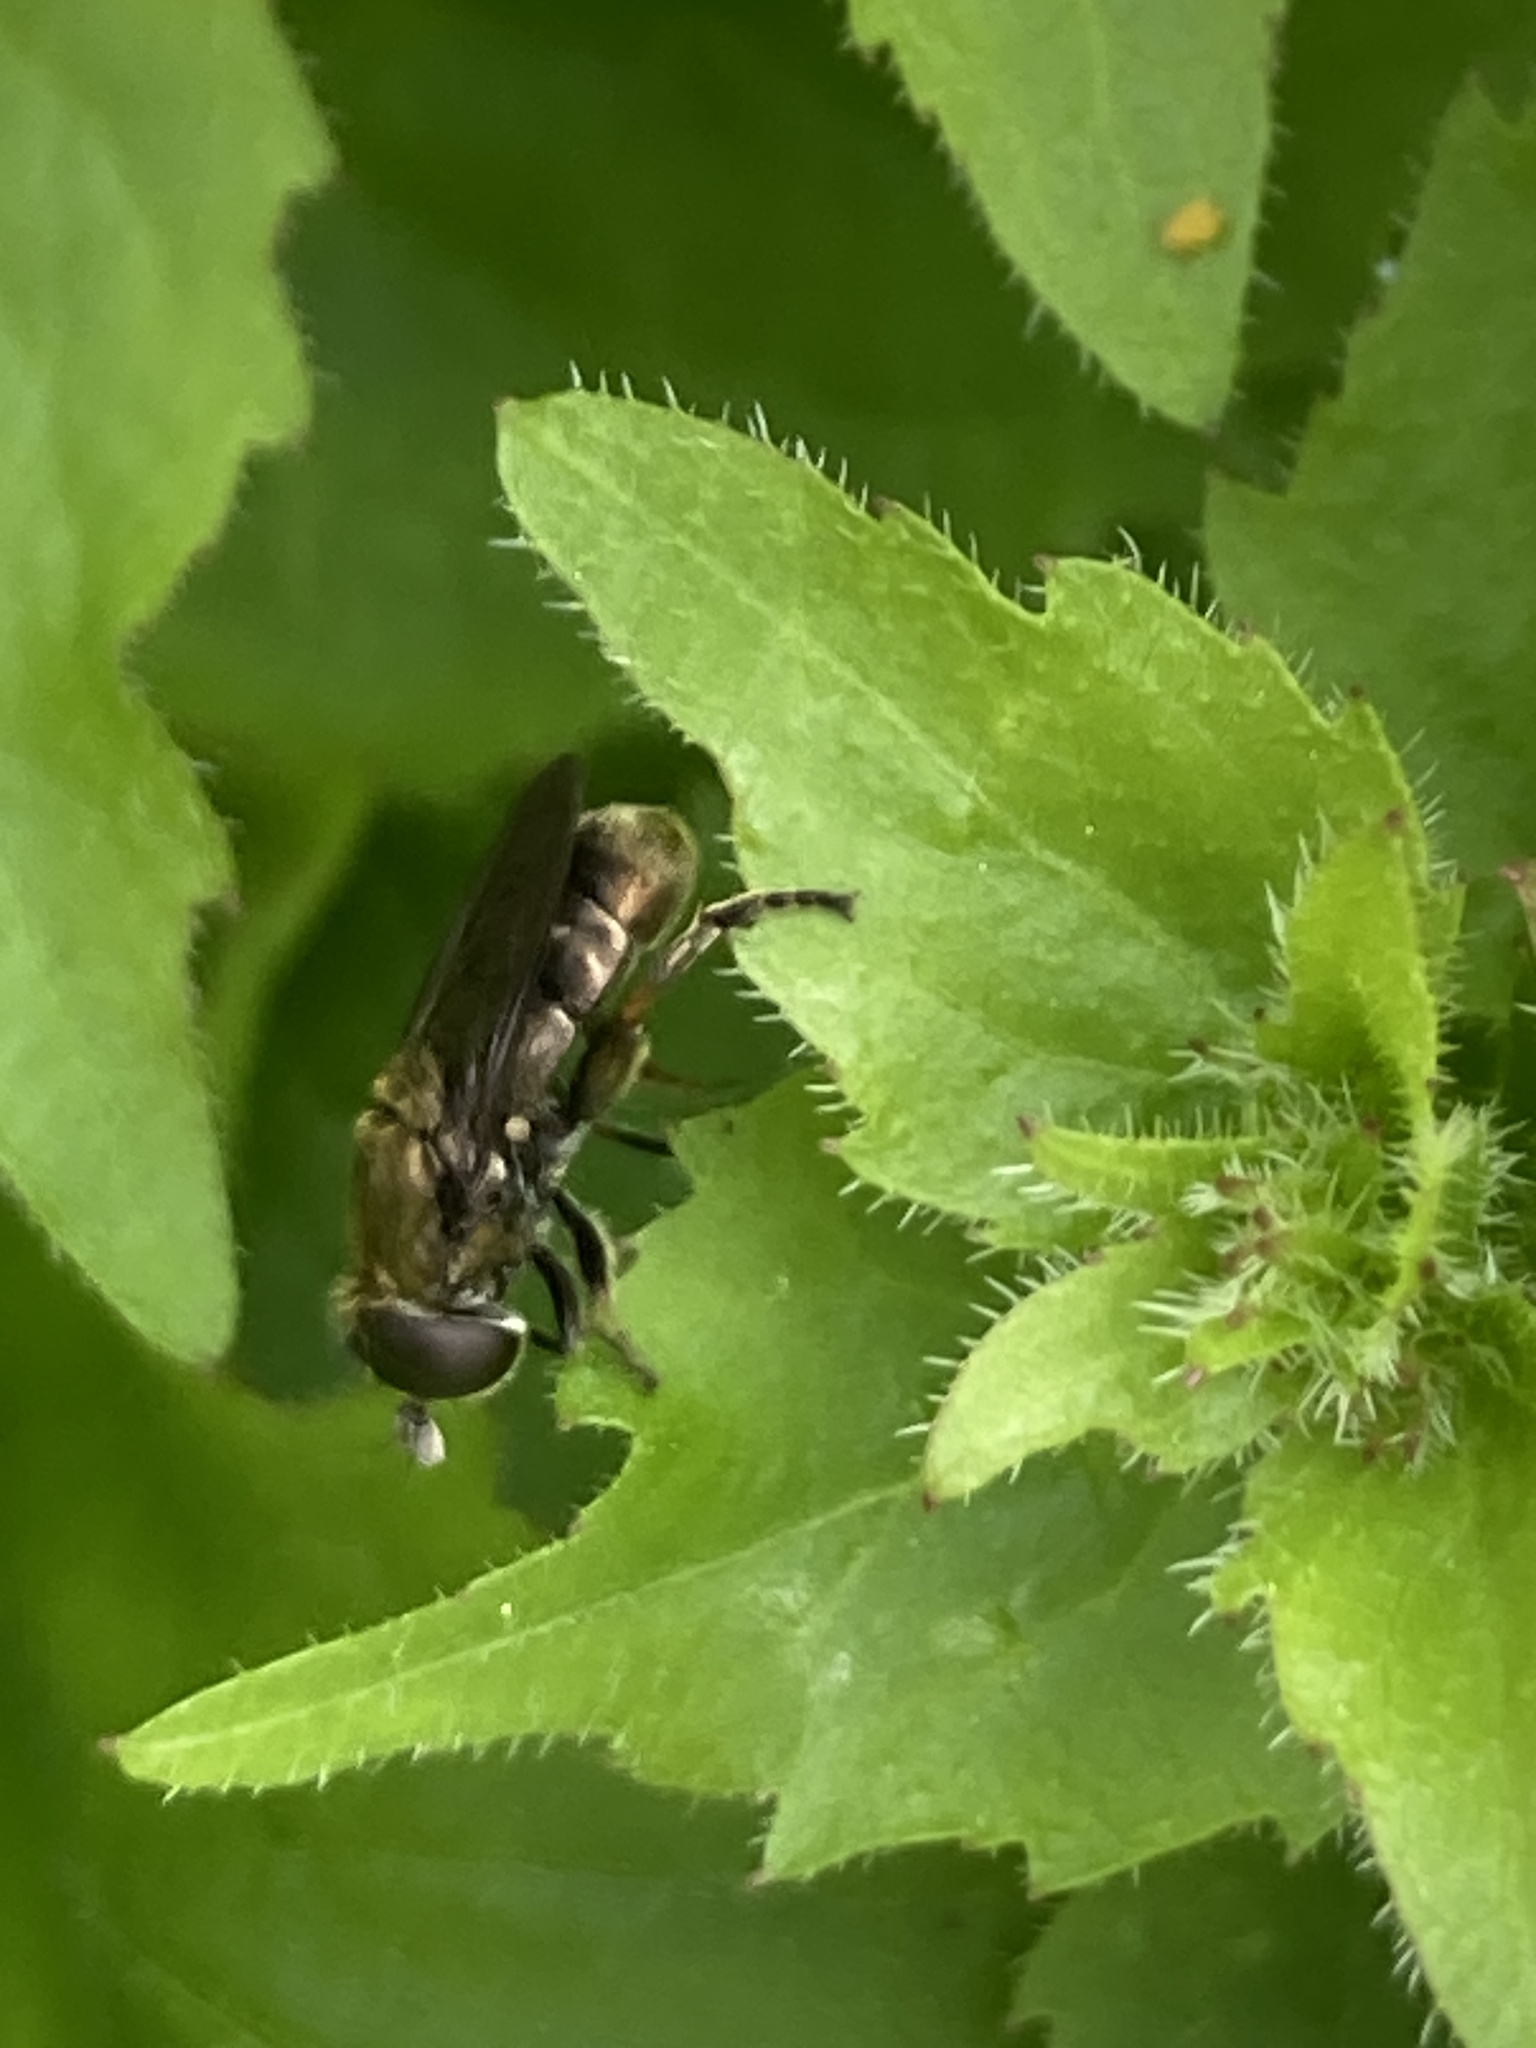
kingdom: Animalia
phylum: Arthropoda
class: Insecta
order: Diptera
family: Syrphidae
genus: Eumerus
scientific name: Eumerus
